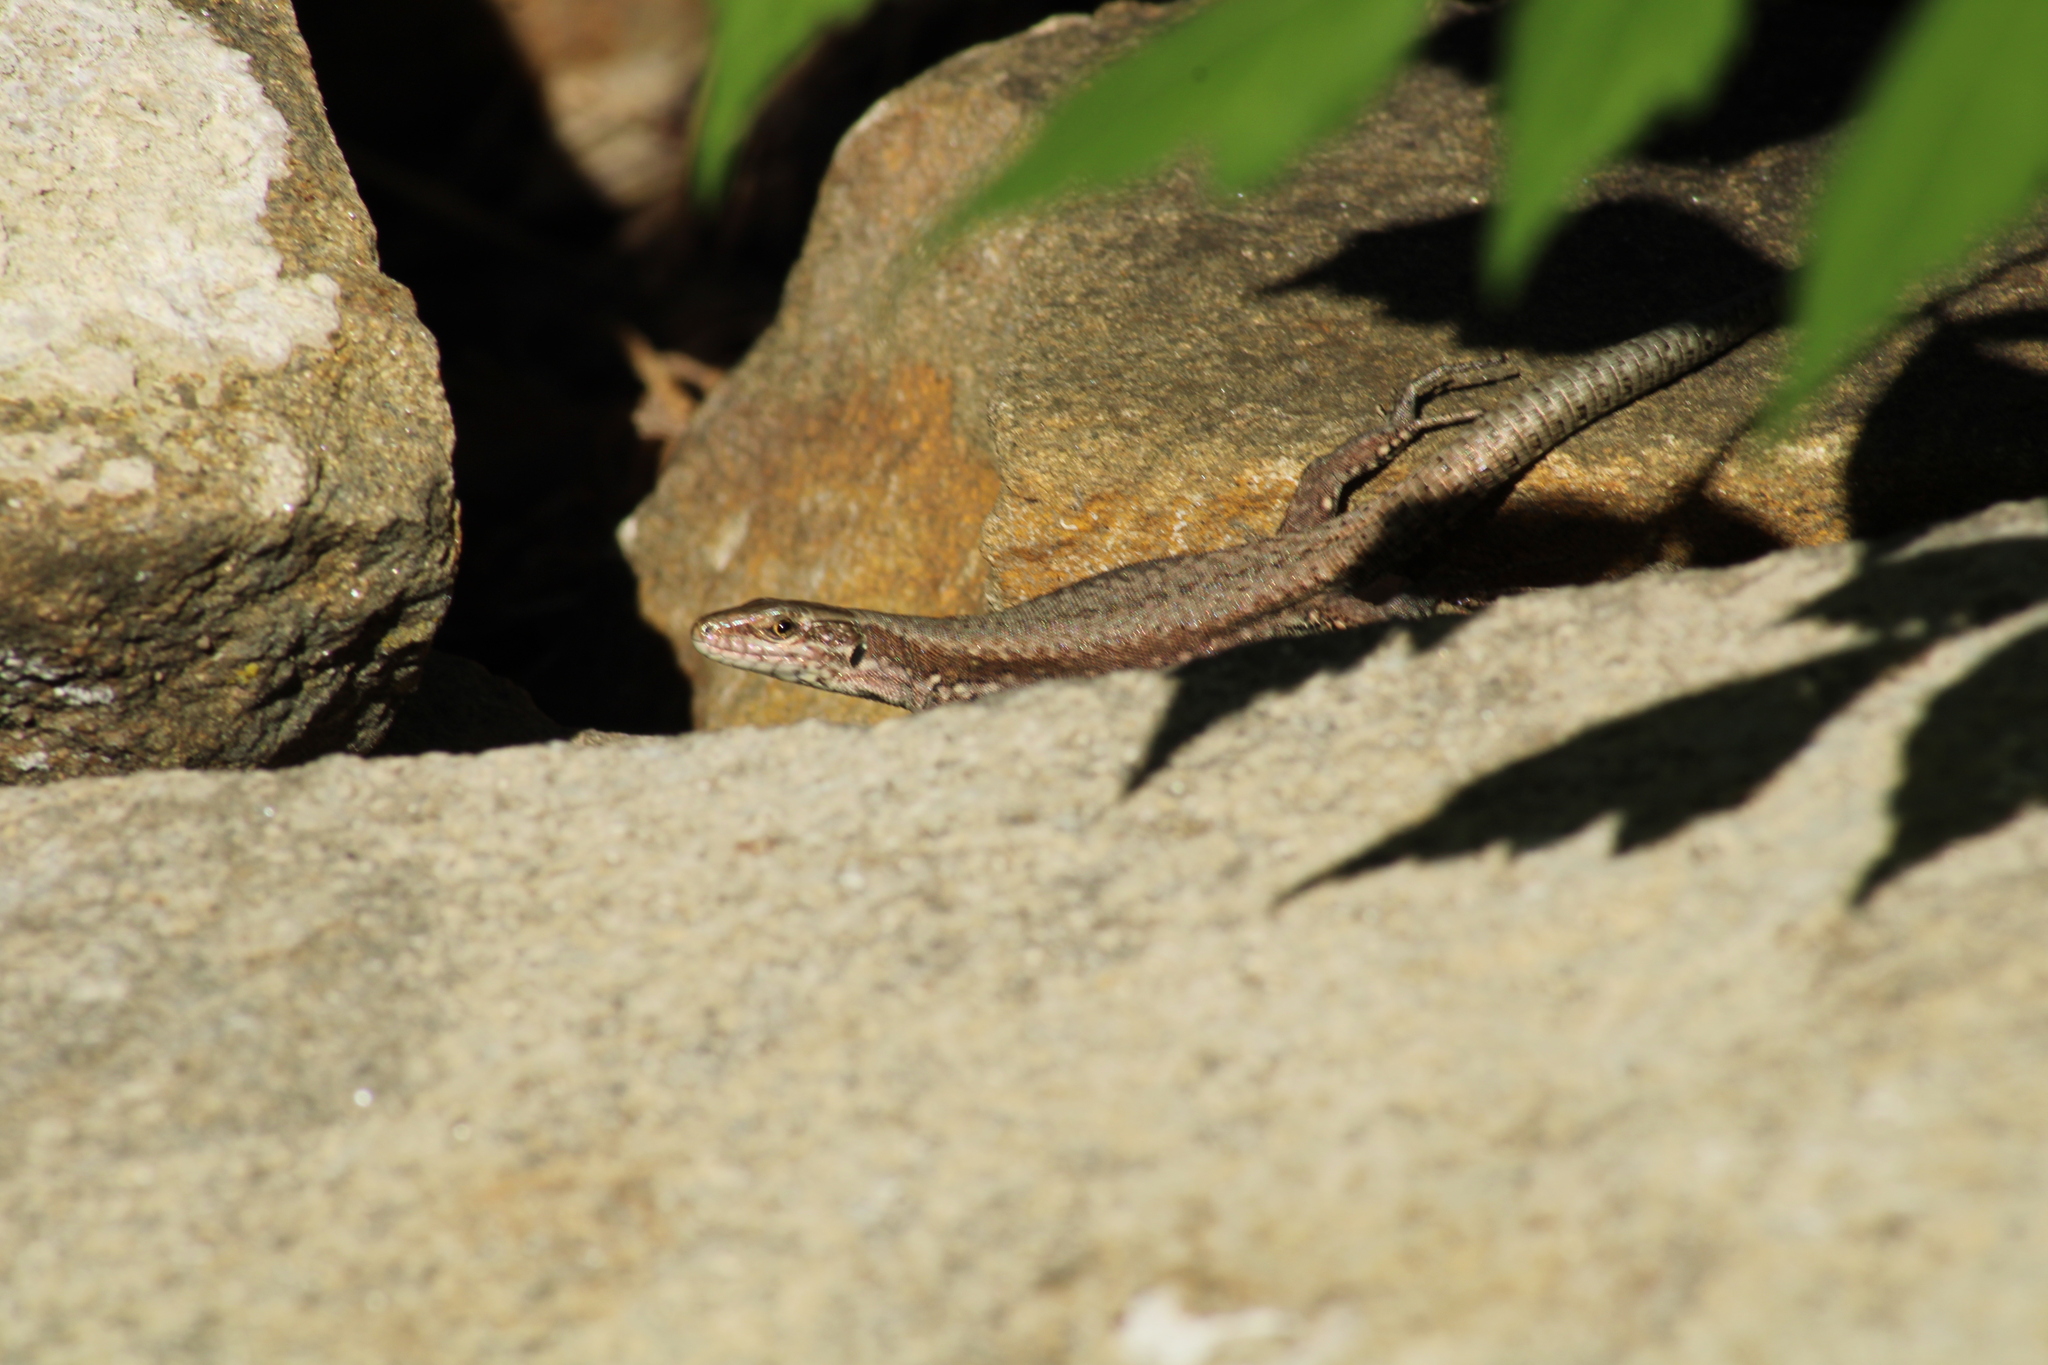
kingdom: Animalia
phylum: Chordata
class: Squamata
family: Lacertidae
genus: Podarcis
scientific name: Podarcis muralis
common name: Common wall lizard
